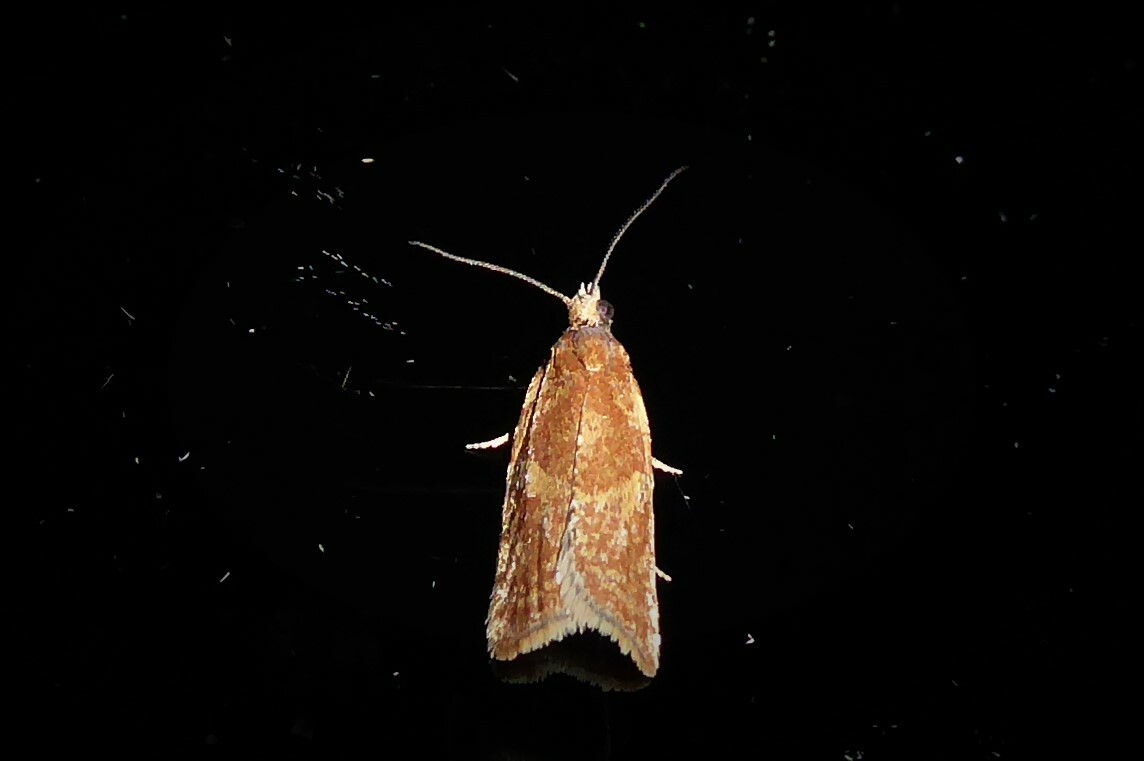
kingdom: Animalia
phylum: Arthropoda
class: Insecta
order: Lepidoptera
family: Tortricidae
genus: Capua
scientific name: Capua semiferana
